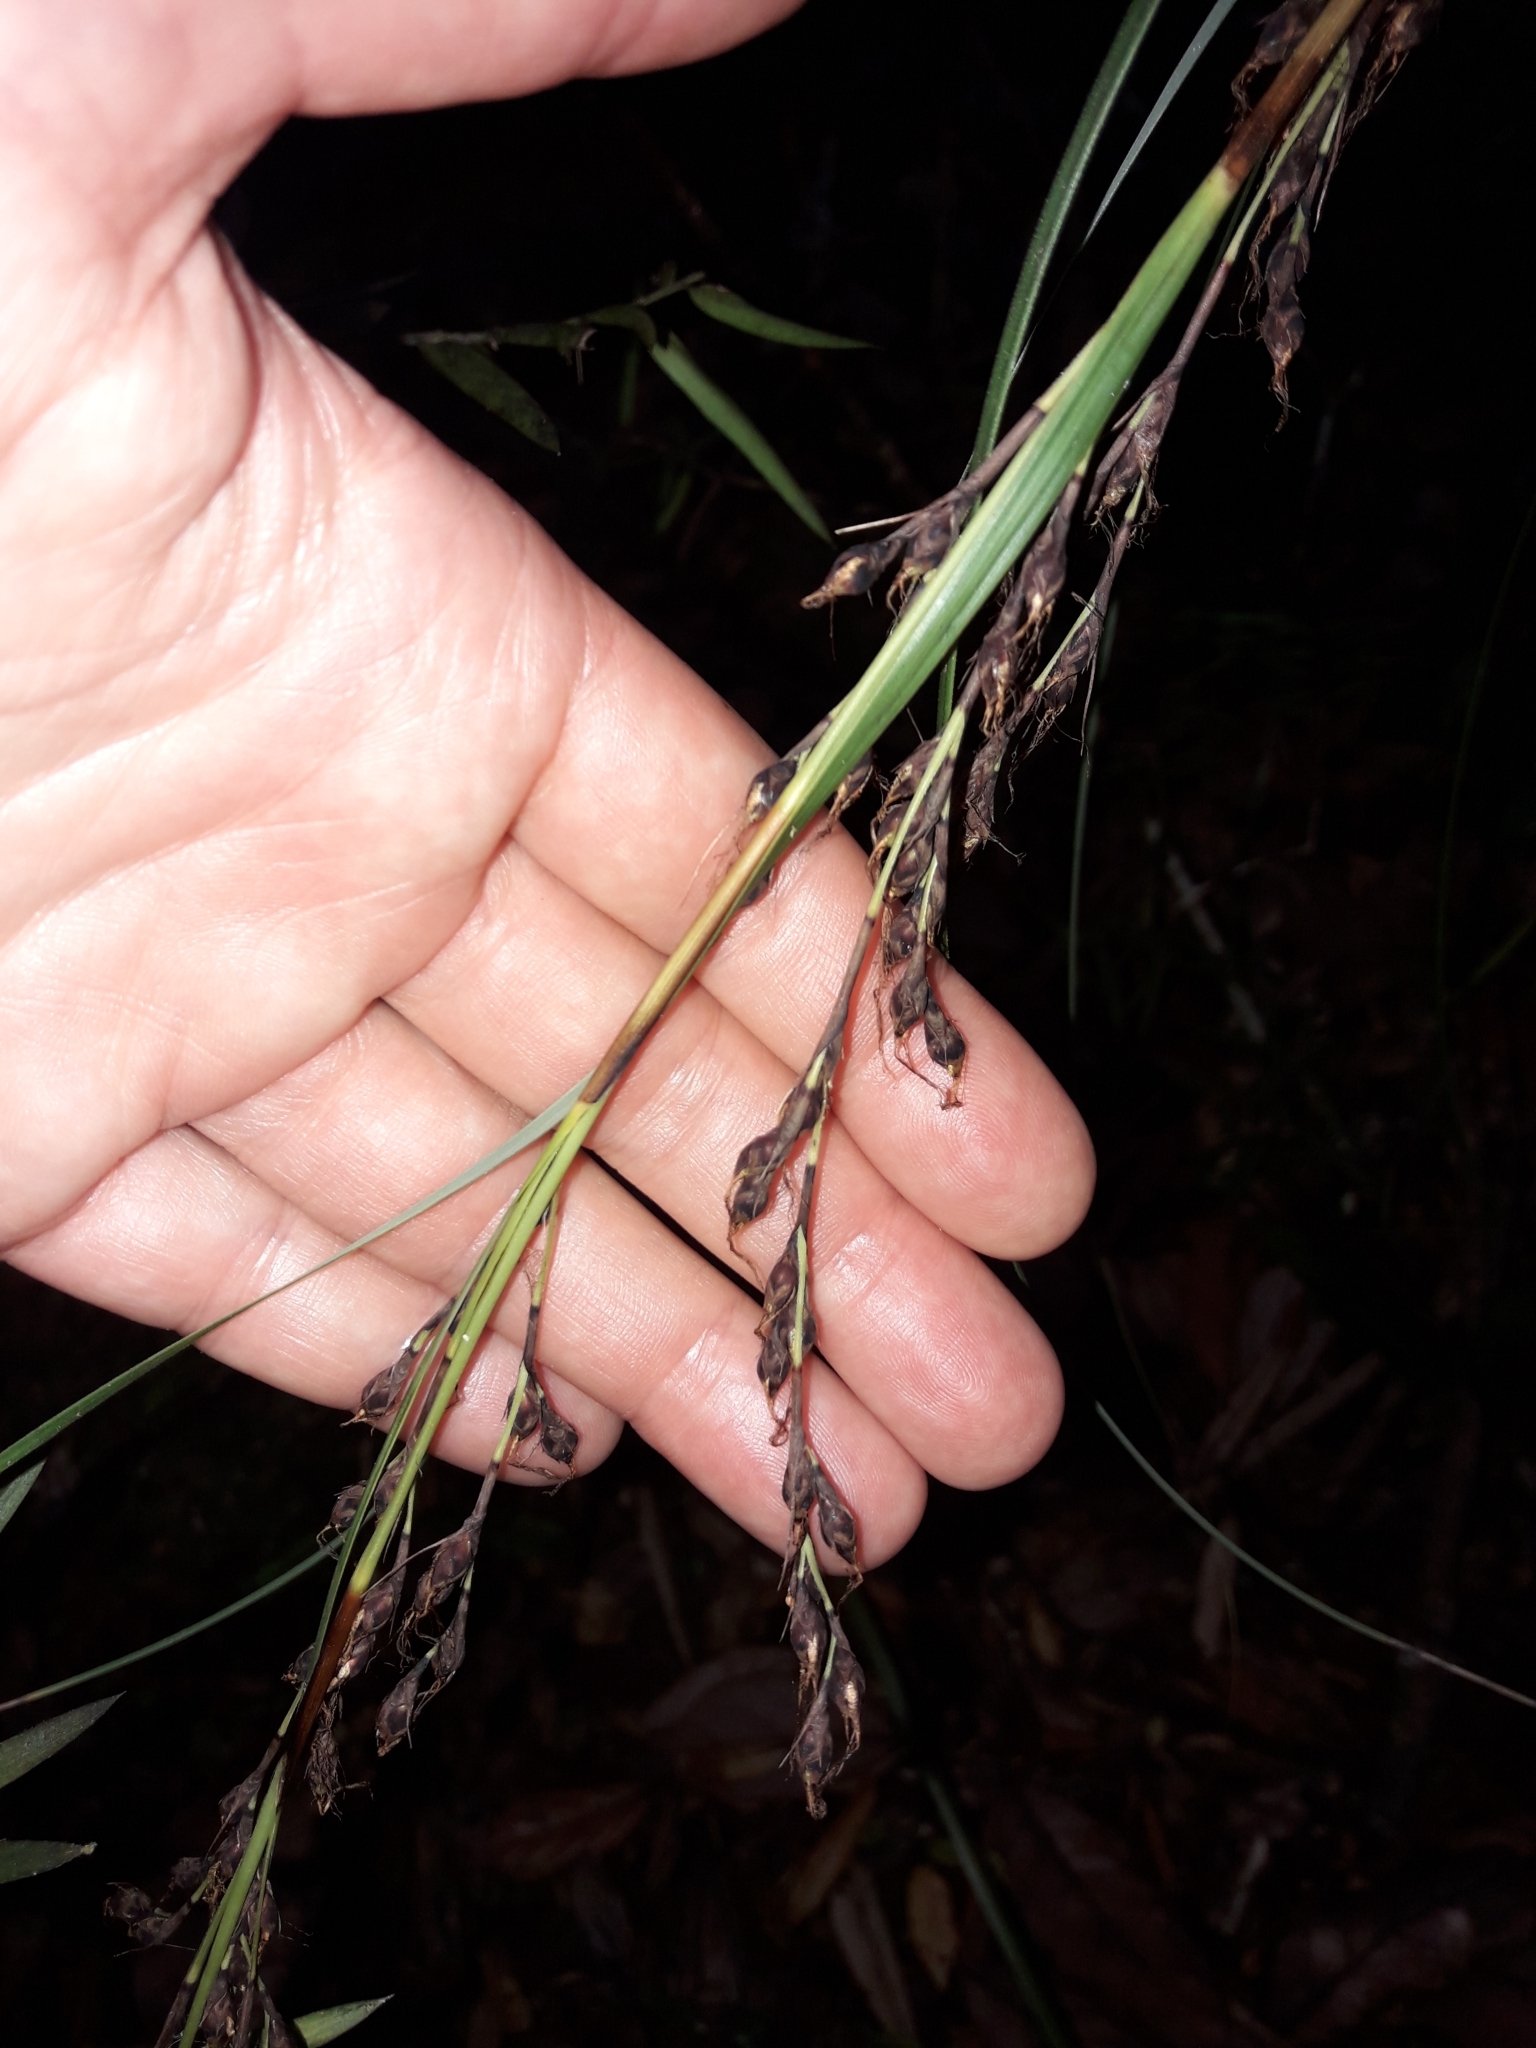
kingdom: Plantae
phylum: Tracheophyta
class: Liliopsida
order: Poales
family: Cyperaceae
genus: Gahnia
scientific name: Gahnia pauciflora
